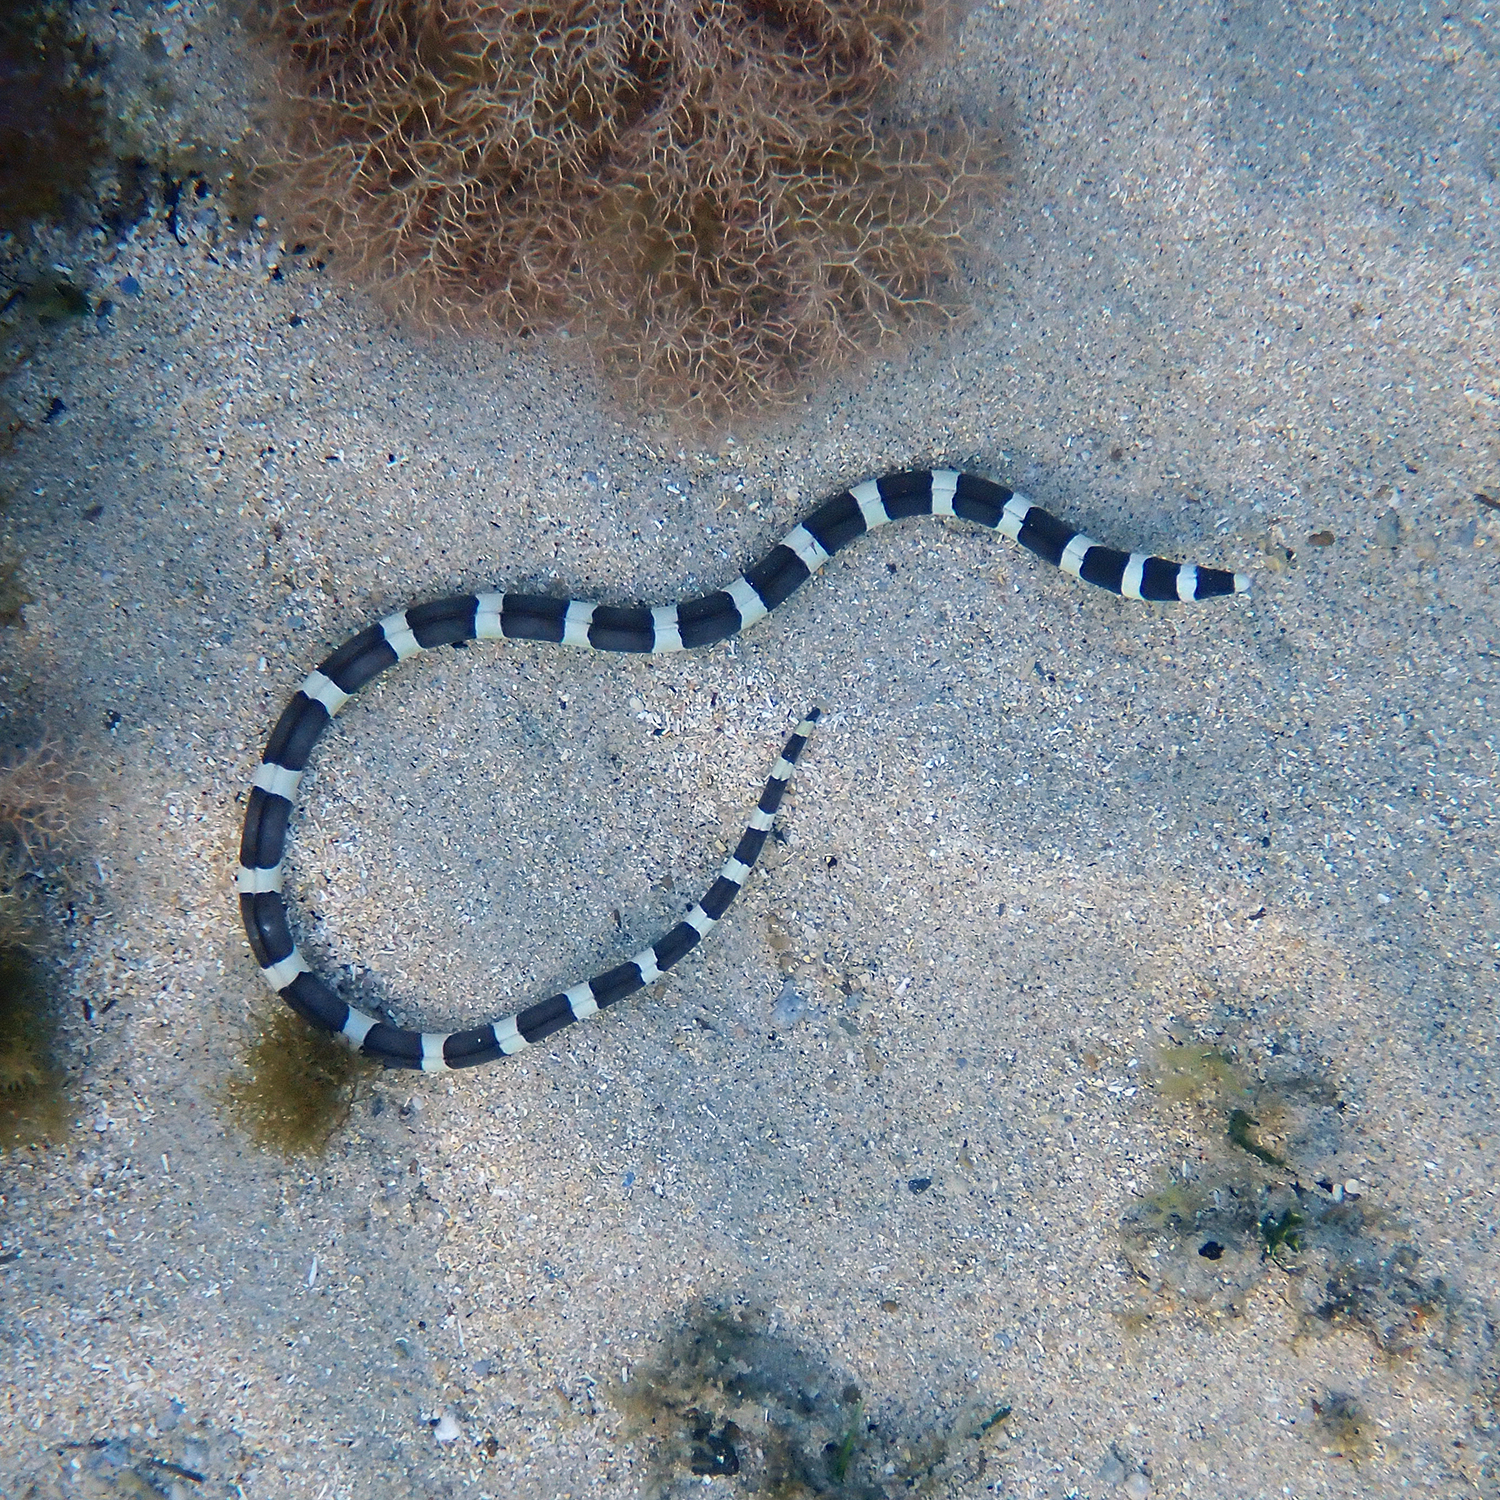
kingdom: Animalia
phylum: Chordata
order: Anguilliformes
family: Ophichthidae
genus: Leiuranus
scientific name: Leiuranus semicinctus
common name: Saddled snake eel
